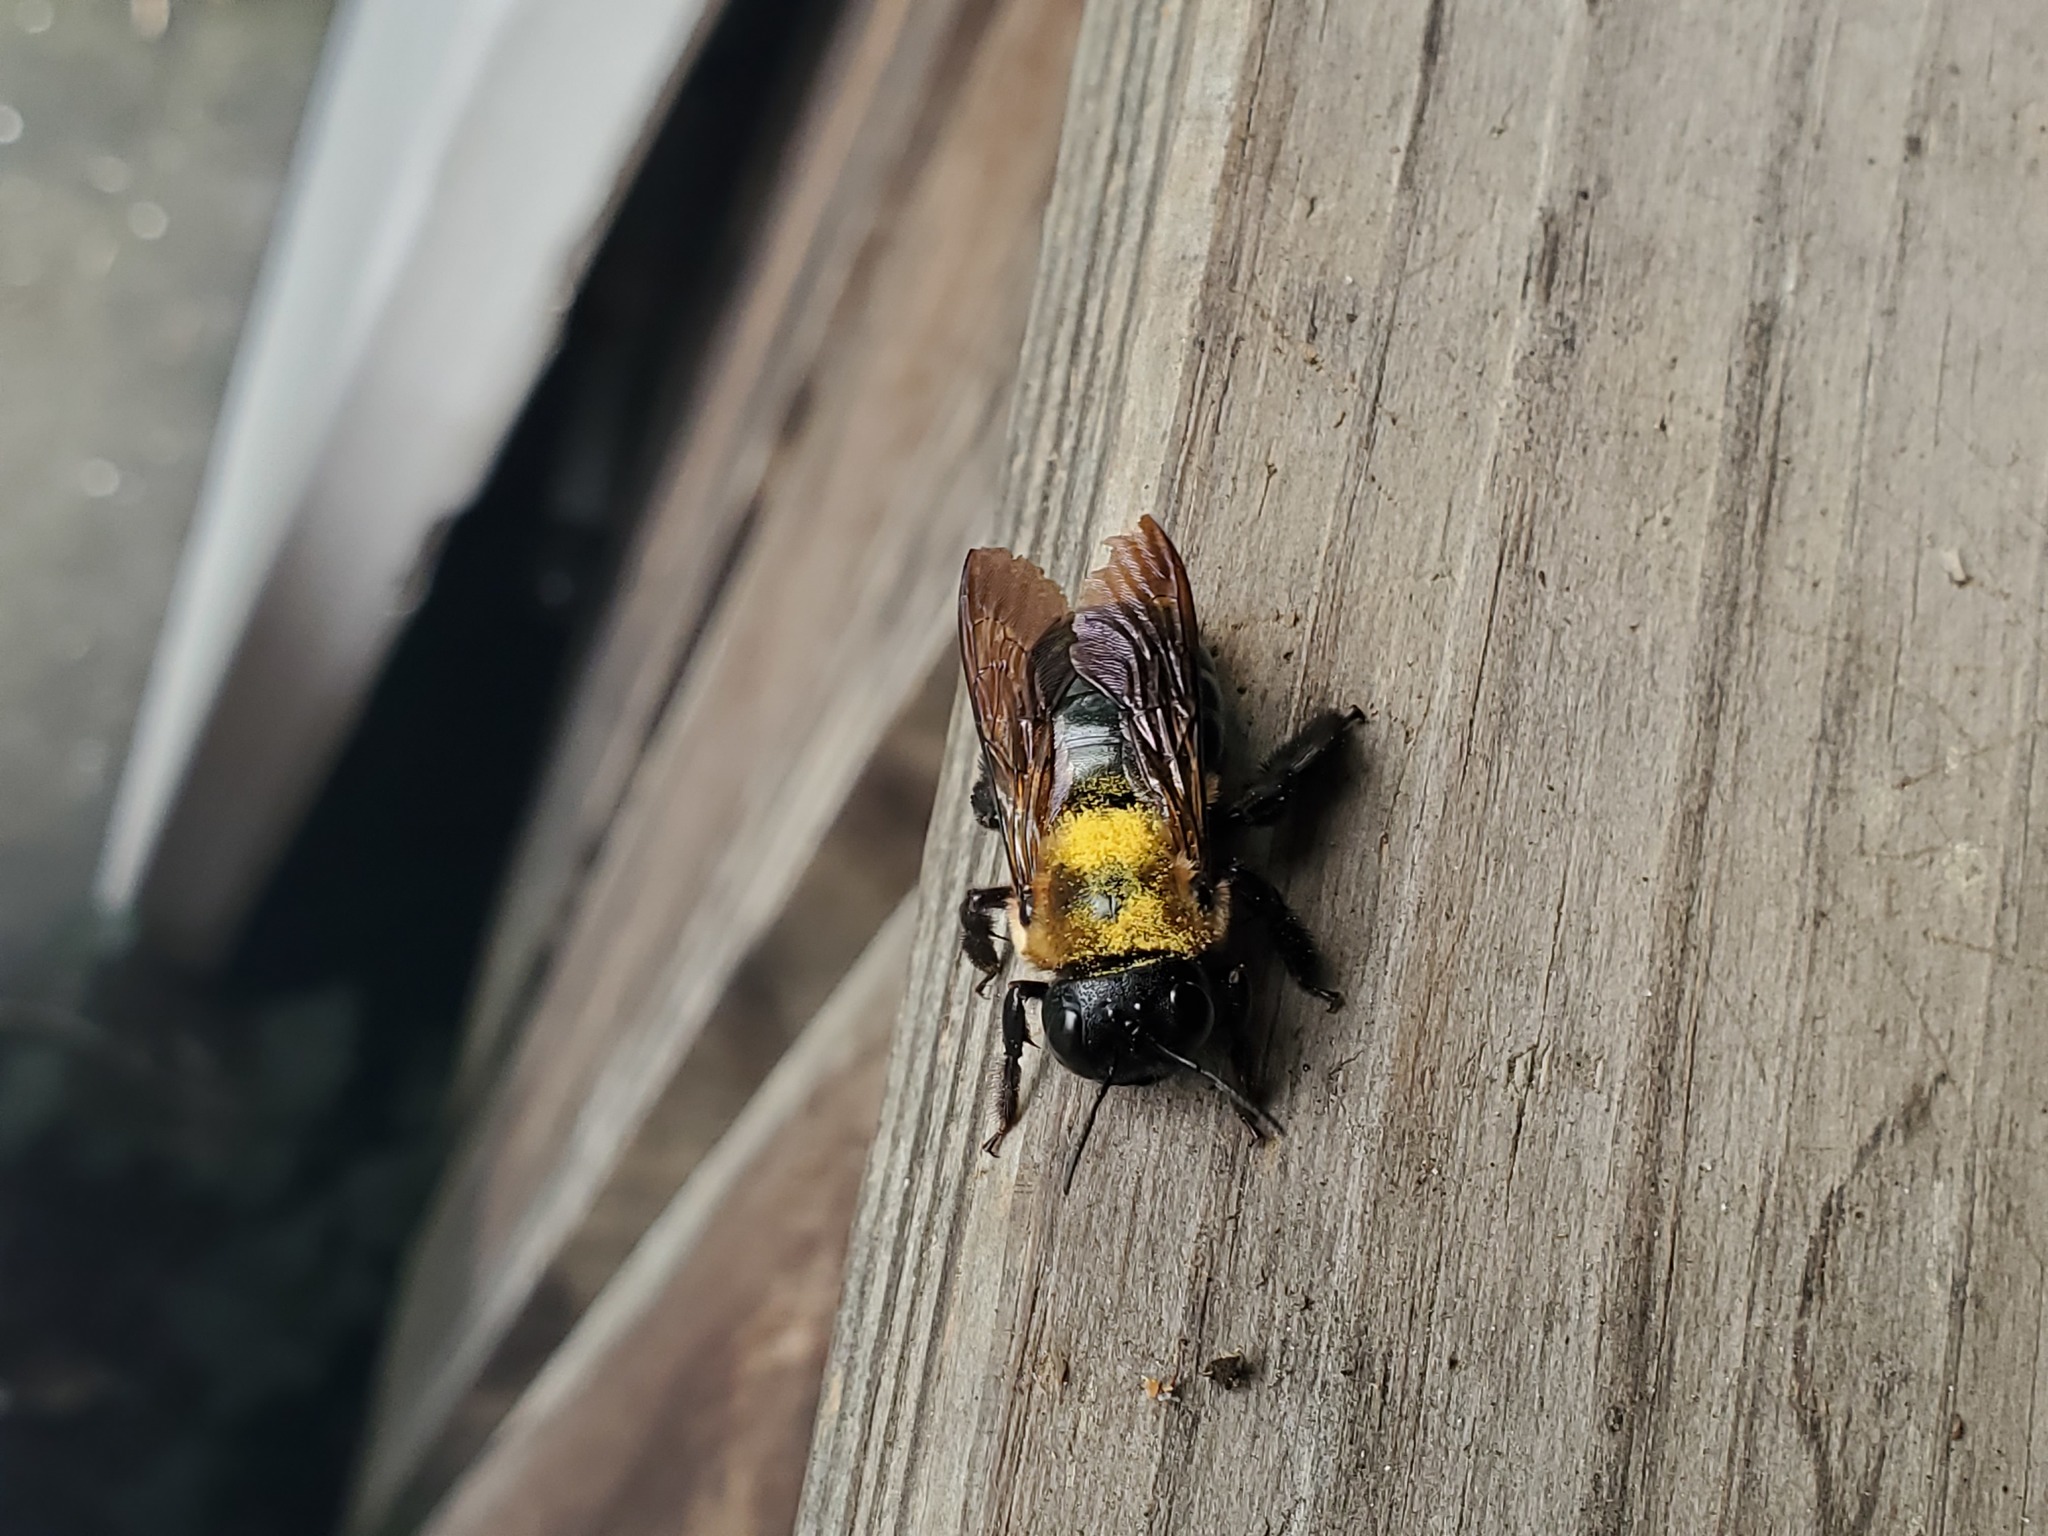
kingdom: Animalia
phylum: Arthropoda
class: Insecta
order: Hymenoptera
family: Apidae
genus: Xylocopa
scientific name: Xylocopa virginica
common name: Carpenter bee
